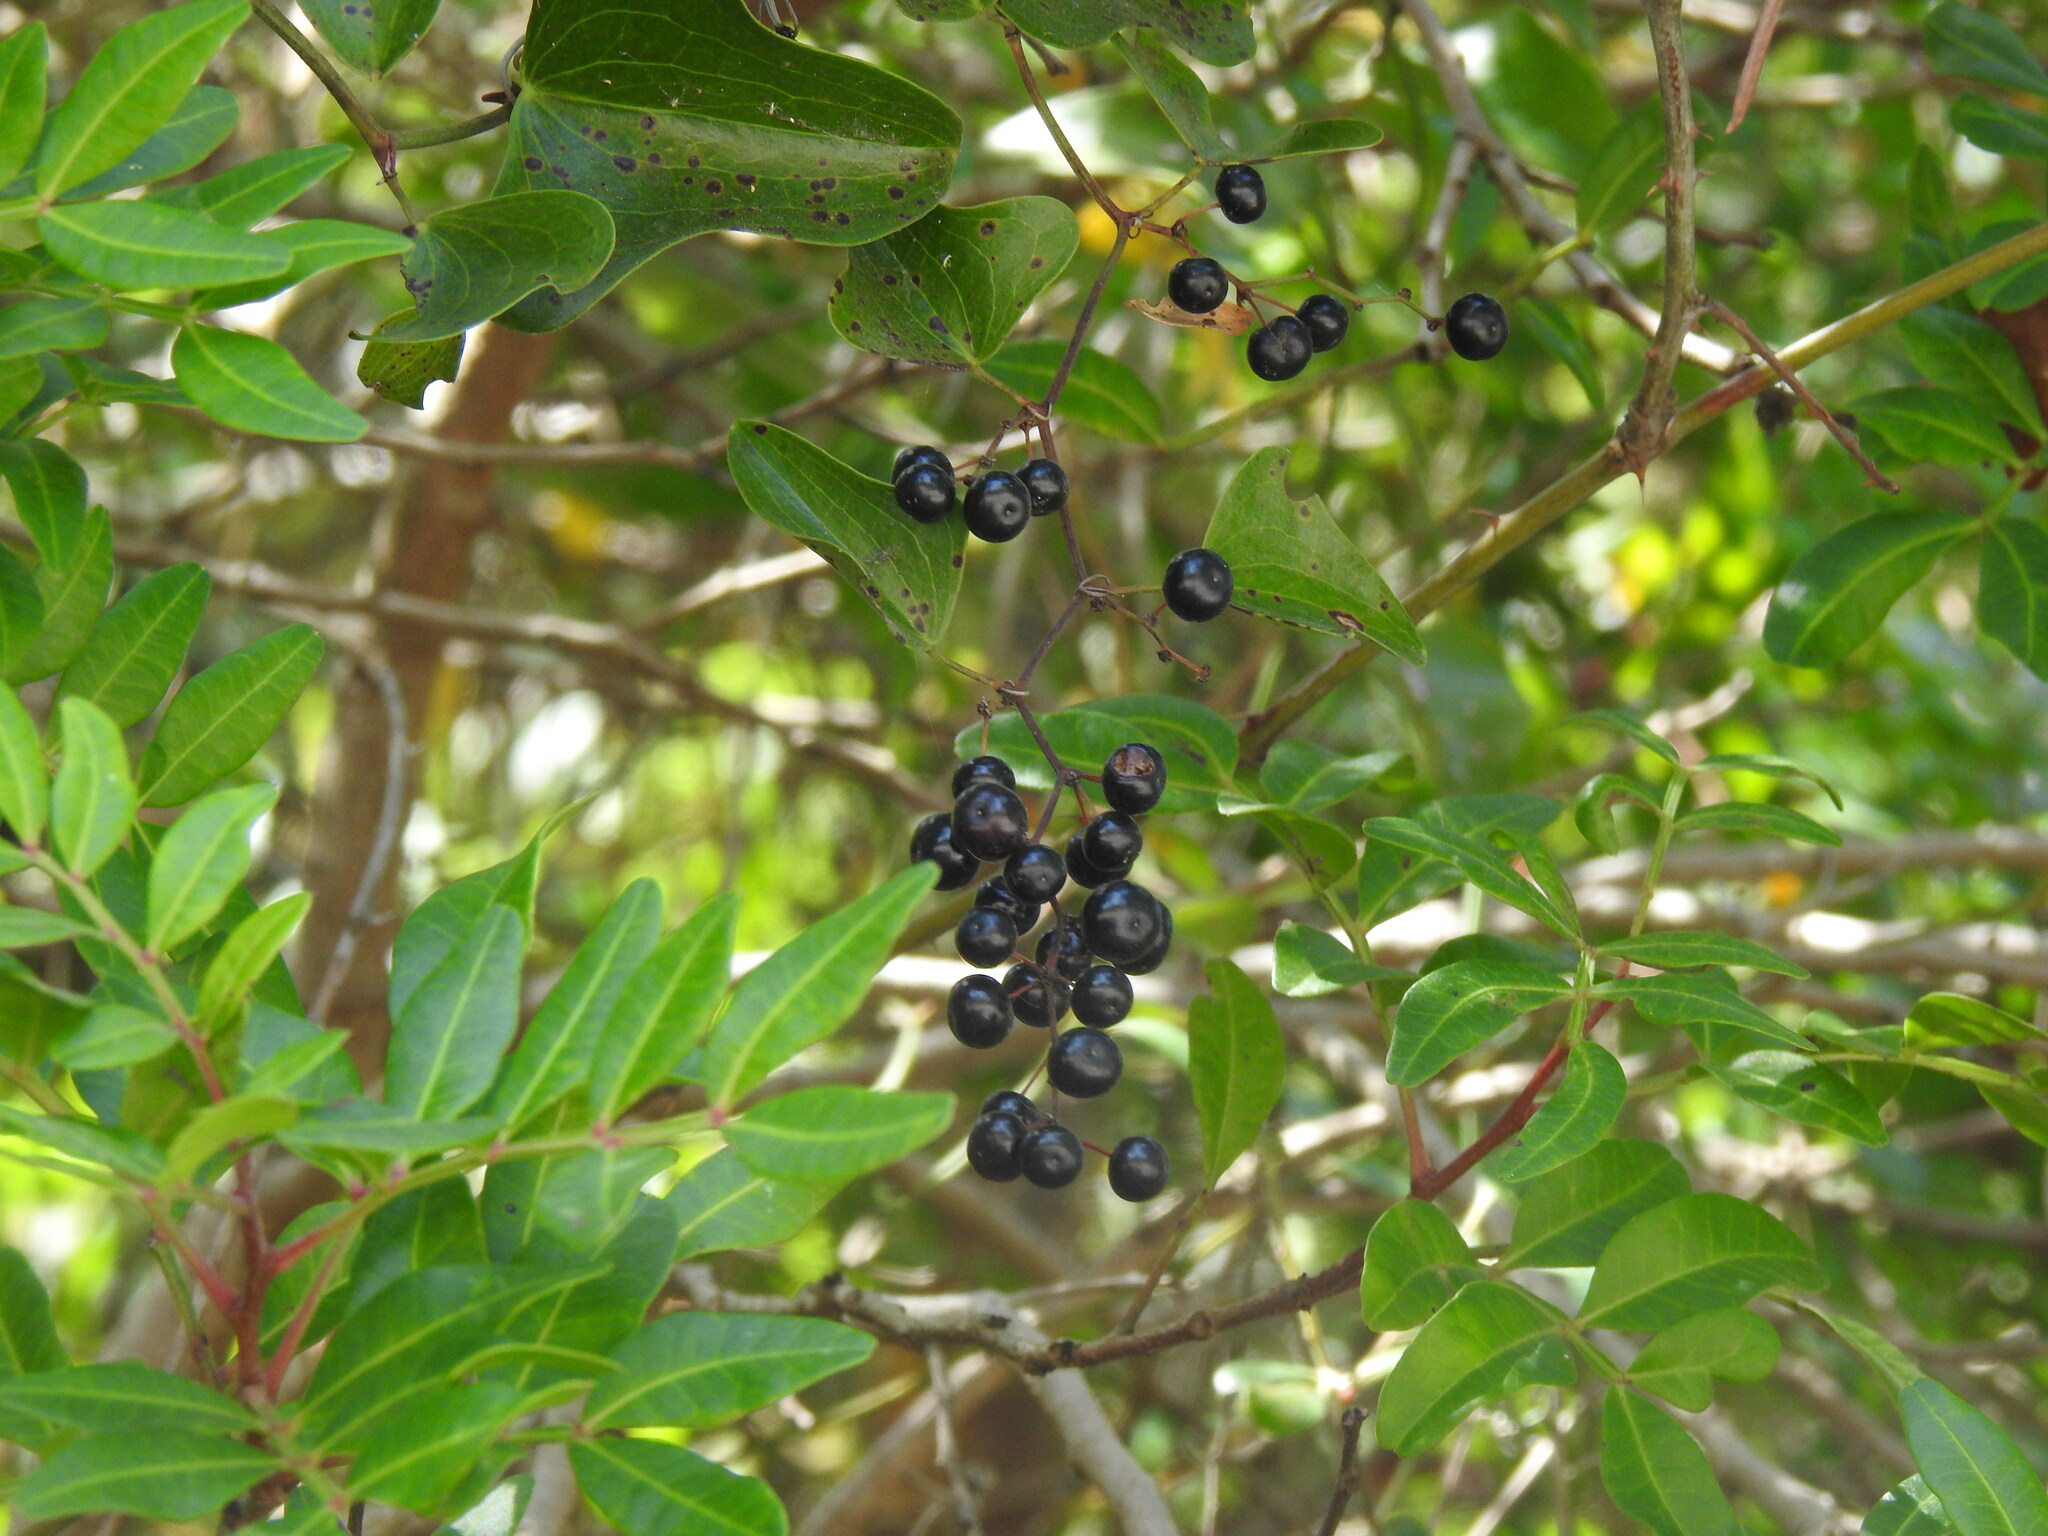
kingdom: Plantae
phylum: Tracheophyta
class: Liliopsida
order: Liliales
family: Smilacaceae
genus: Smilax
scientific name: Smilax aspera
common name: Common smilax
